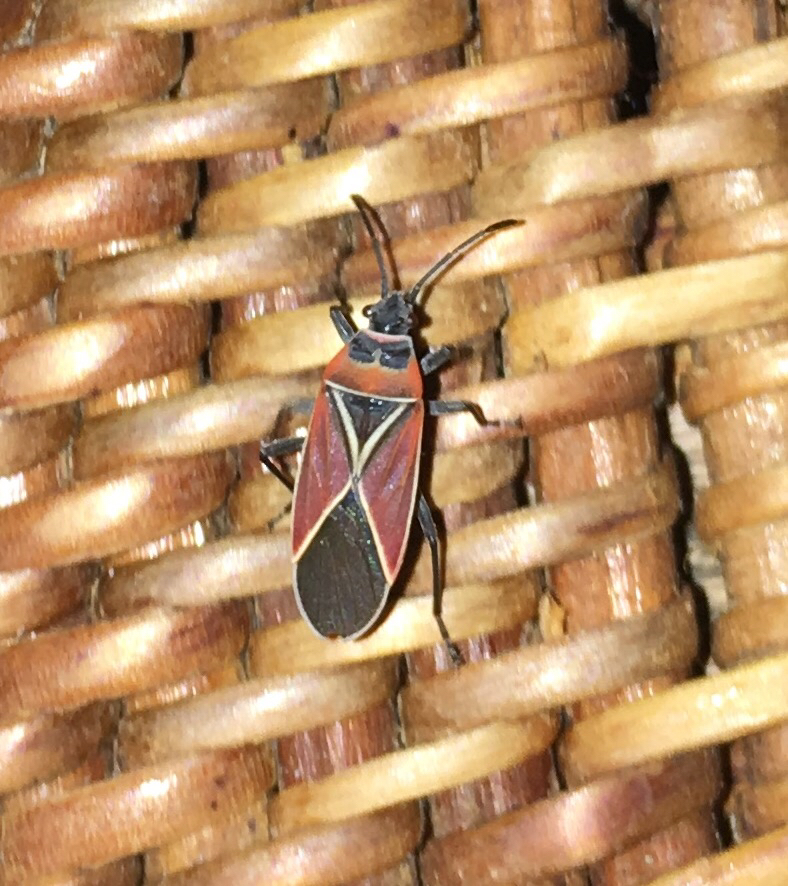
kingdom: Animalia
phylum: Arthropoda
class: Insecta
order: Hemiptera
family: Lygaeidae
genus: Neacoryphus
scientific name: Neacoryphus bicrucis
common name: Lygaeid bug
